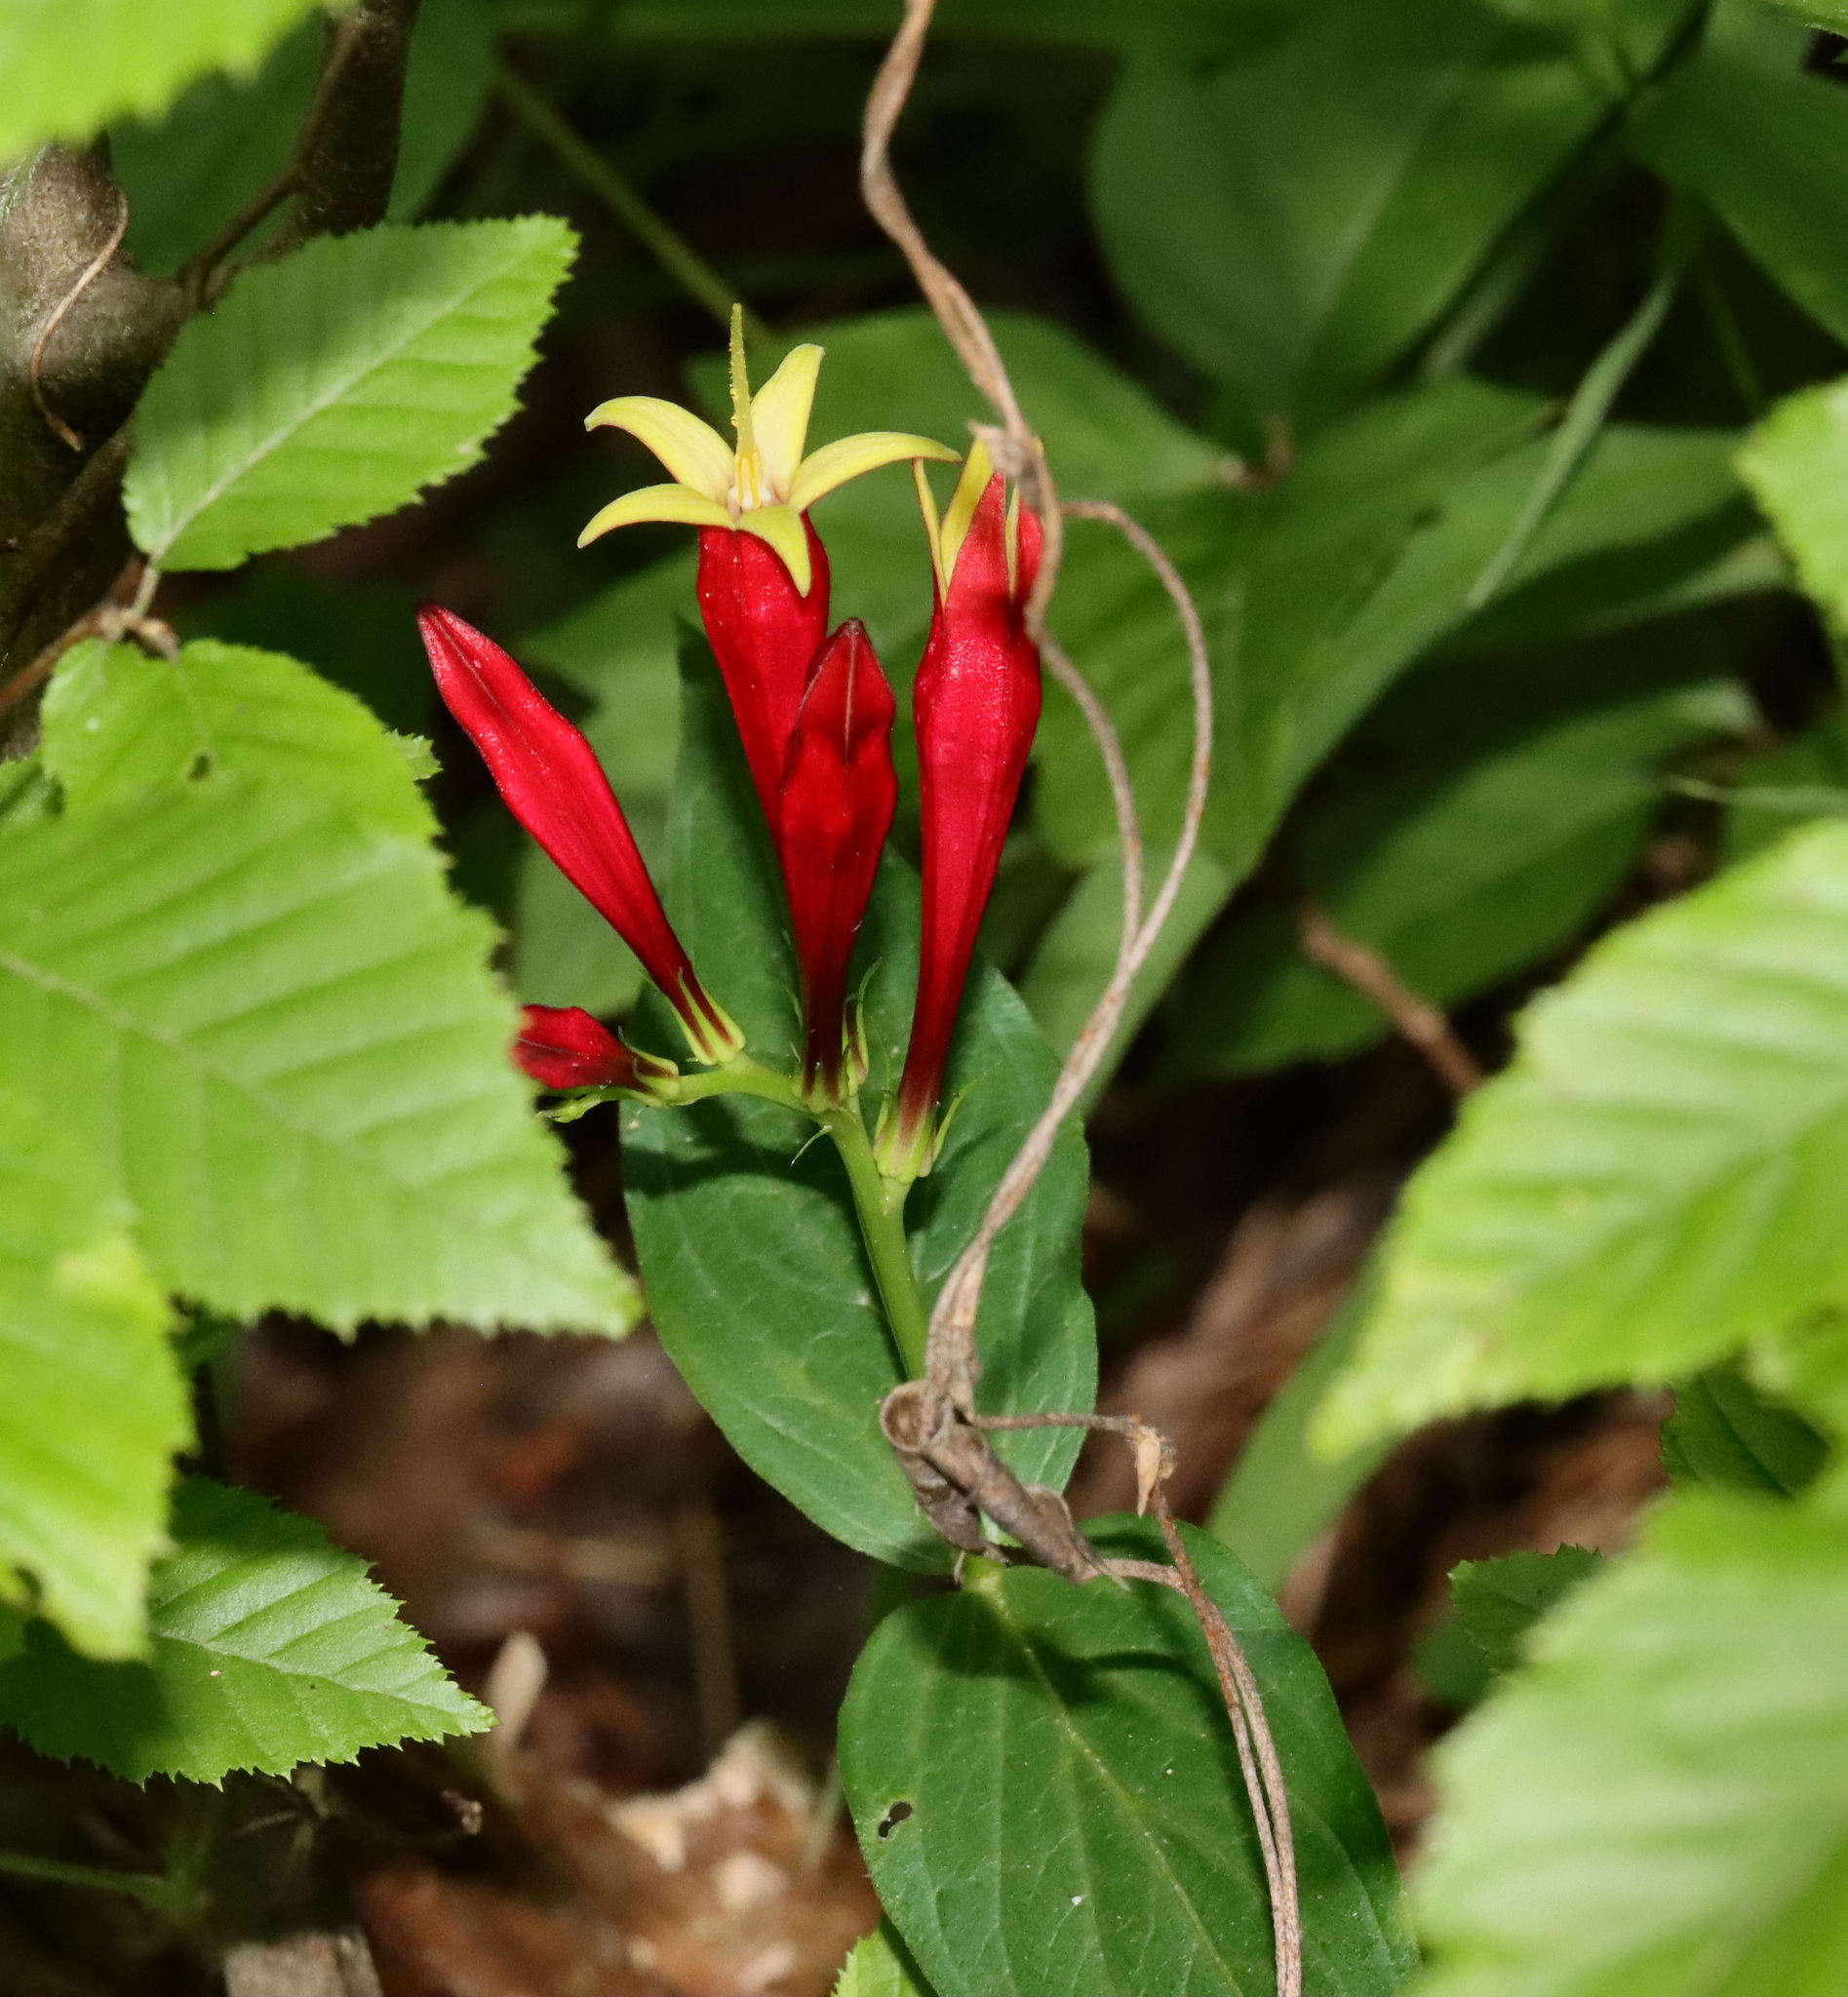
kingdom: Plantae
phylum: Tracheophyta
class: Magnoliopsida
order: Gentianales
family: Loganiaceae
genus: Spigelia
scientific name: Spigelia marilandica
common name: Indian-pink
